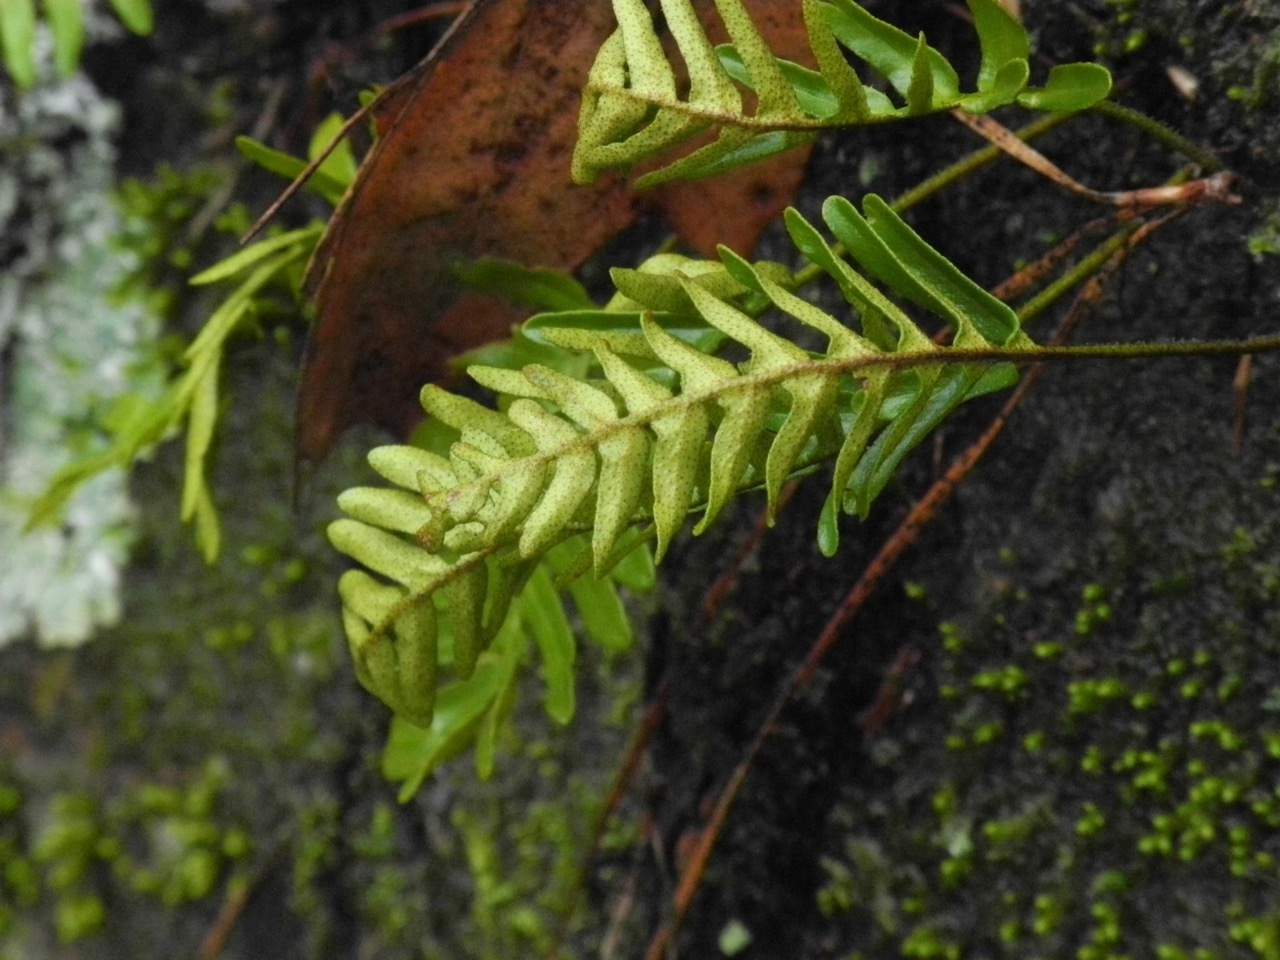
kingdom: Plantae
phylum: Tracheophyta
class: Polypodiopsida
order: Polypodiales
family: Polypodiaceae
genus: Pleopeltis
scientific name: Pleopeltis michauxiana
